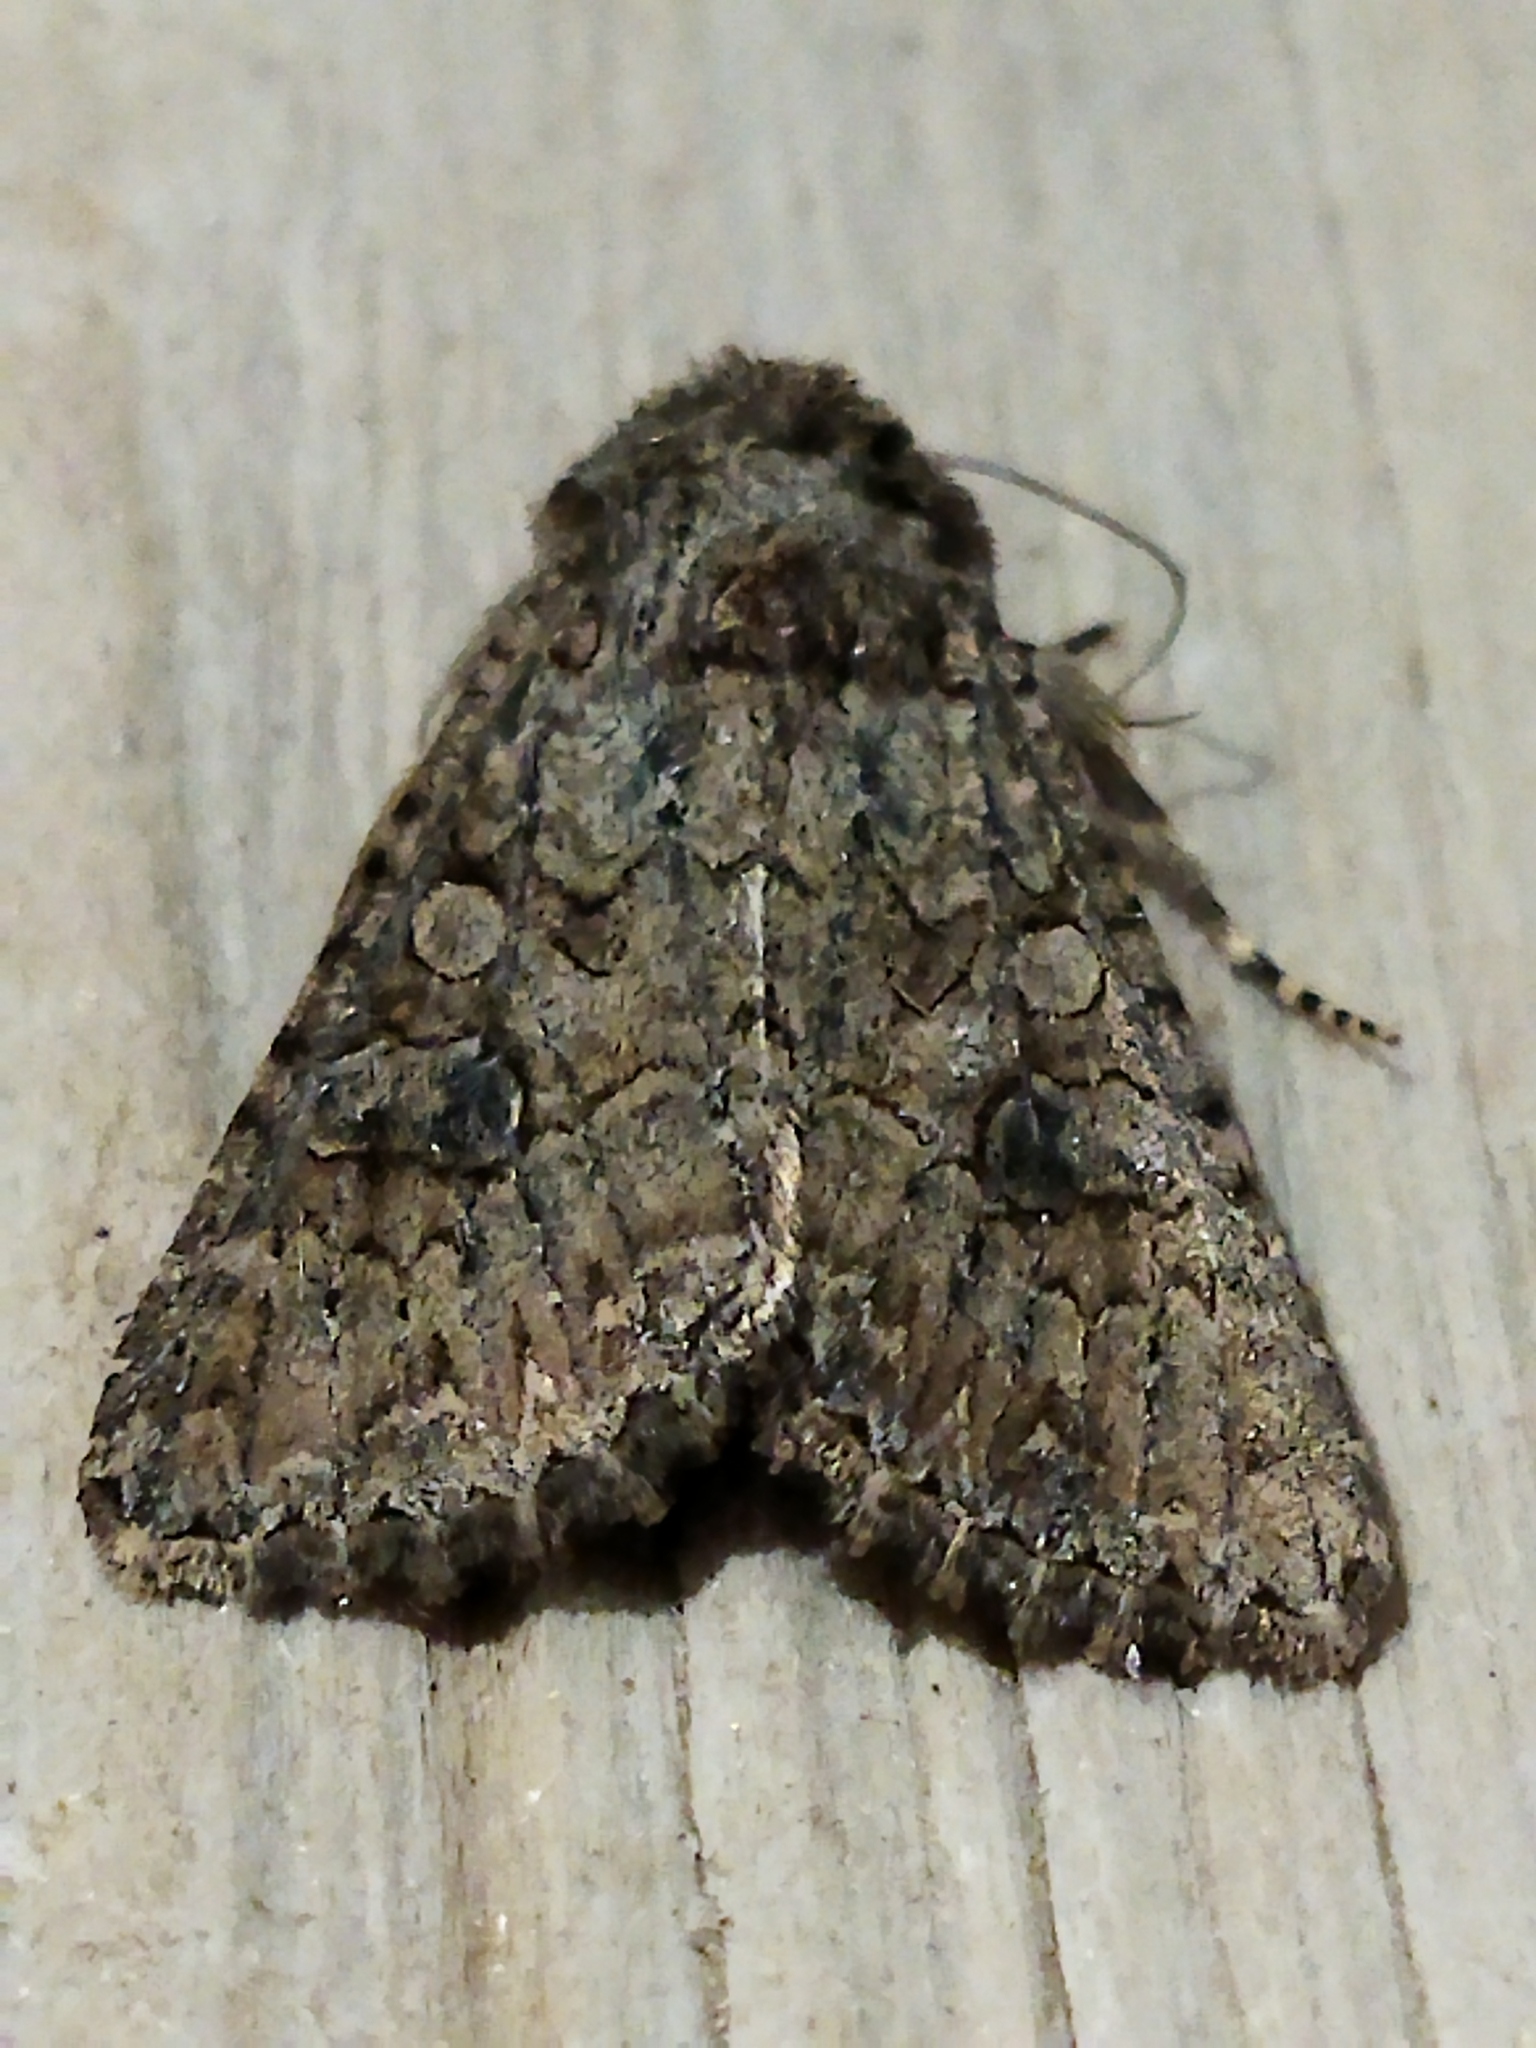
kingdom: Animalia
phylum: Arthropoda
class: Insecta
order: Lepidoptera
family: Noctuidae
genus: Anarta
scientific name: Anarta trifolii
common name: Clover cutworm moth
